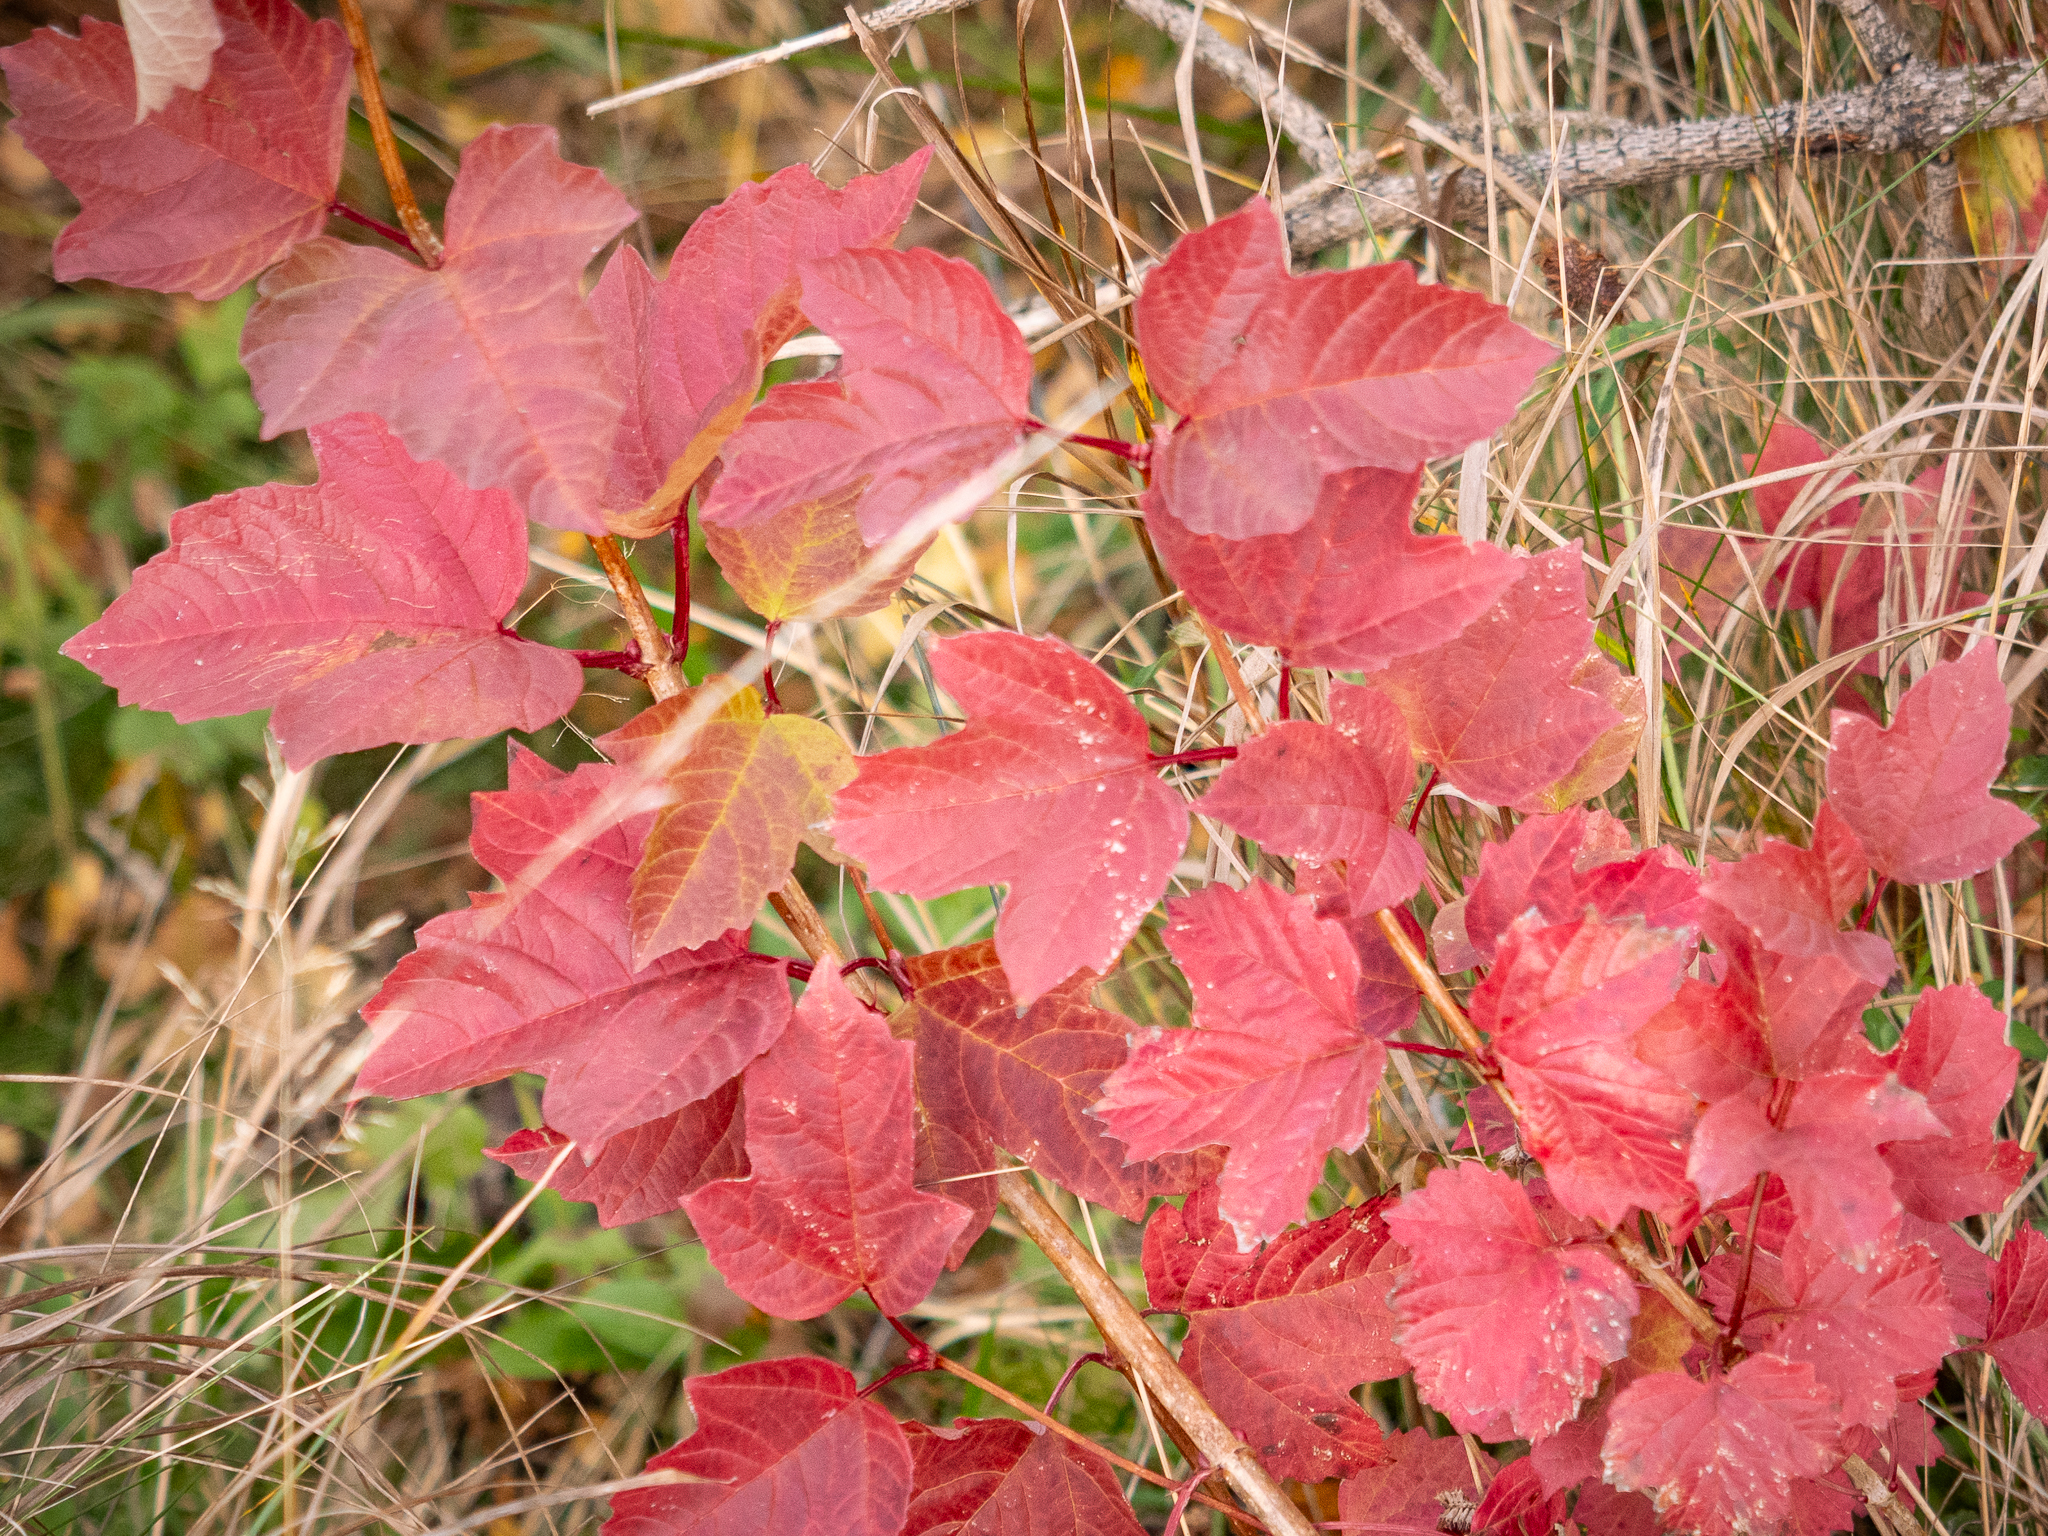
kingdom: Plantae
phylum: Tracheophyta
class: Magnoliopsida
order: Dipsacales
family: Viburnaceae
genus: Viburnum
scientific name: Viburnum opulus
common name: Guelder-rose
